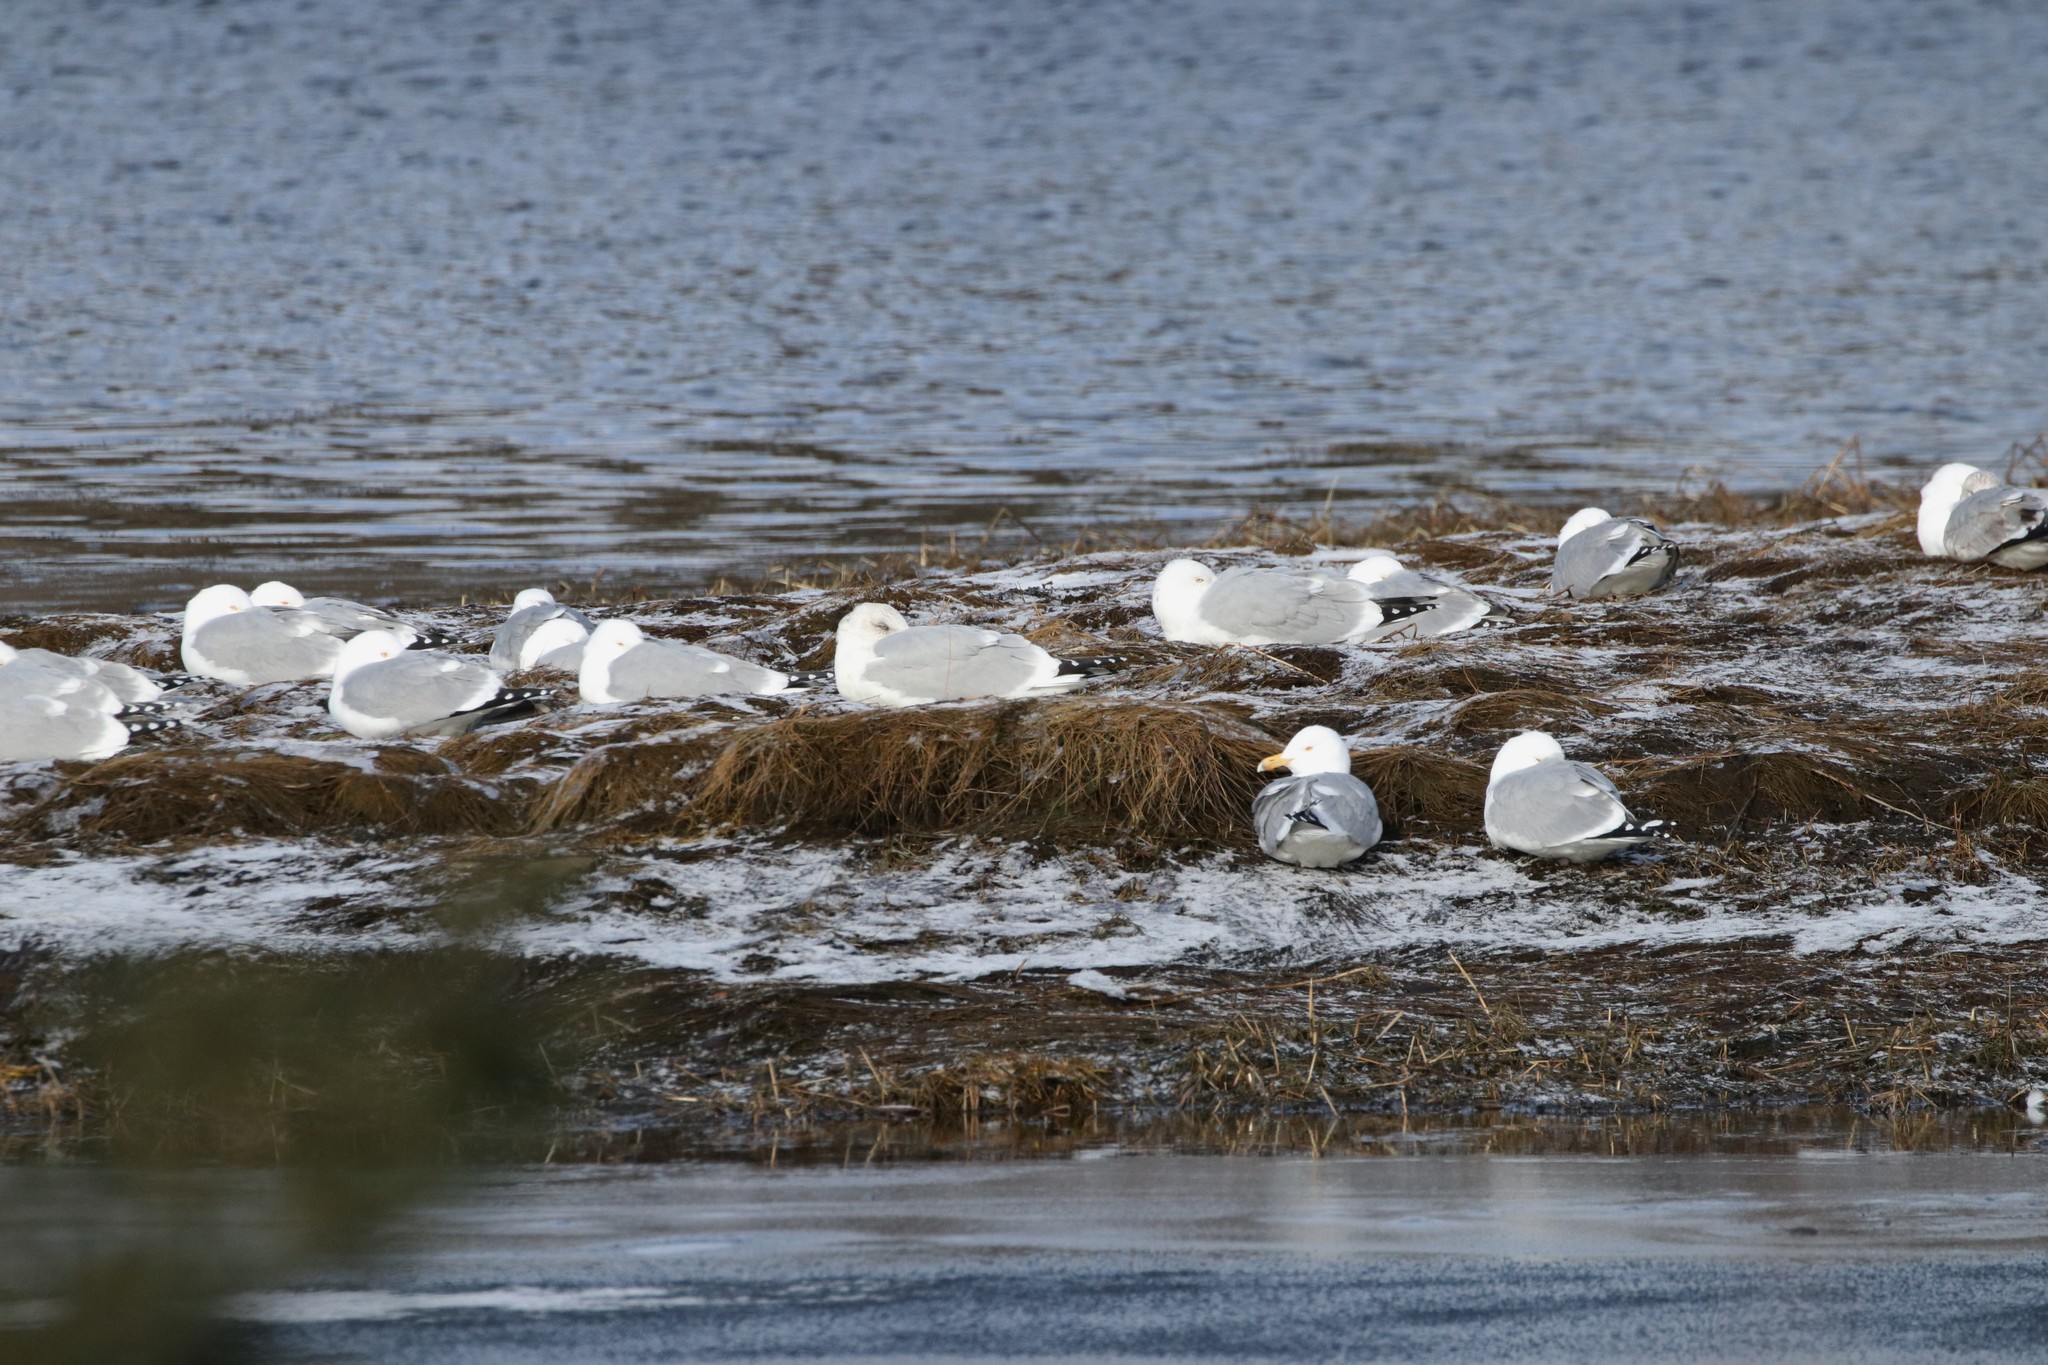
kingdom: Animalia
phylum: Chordata
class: Aves
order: Charadriiformes
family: Laridae
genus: Larus
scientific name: Larus argentatus
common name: Herring gull
